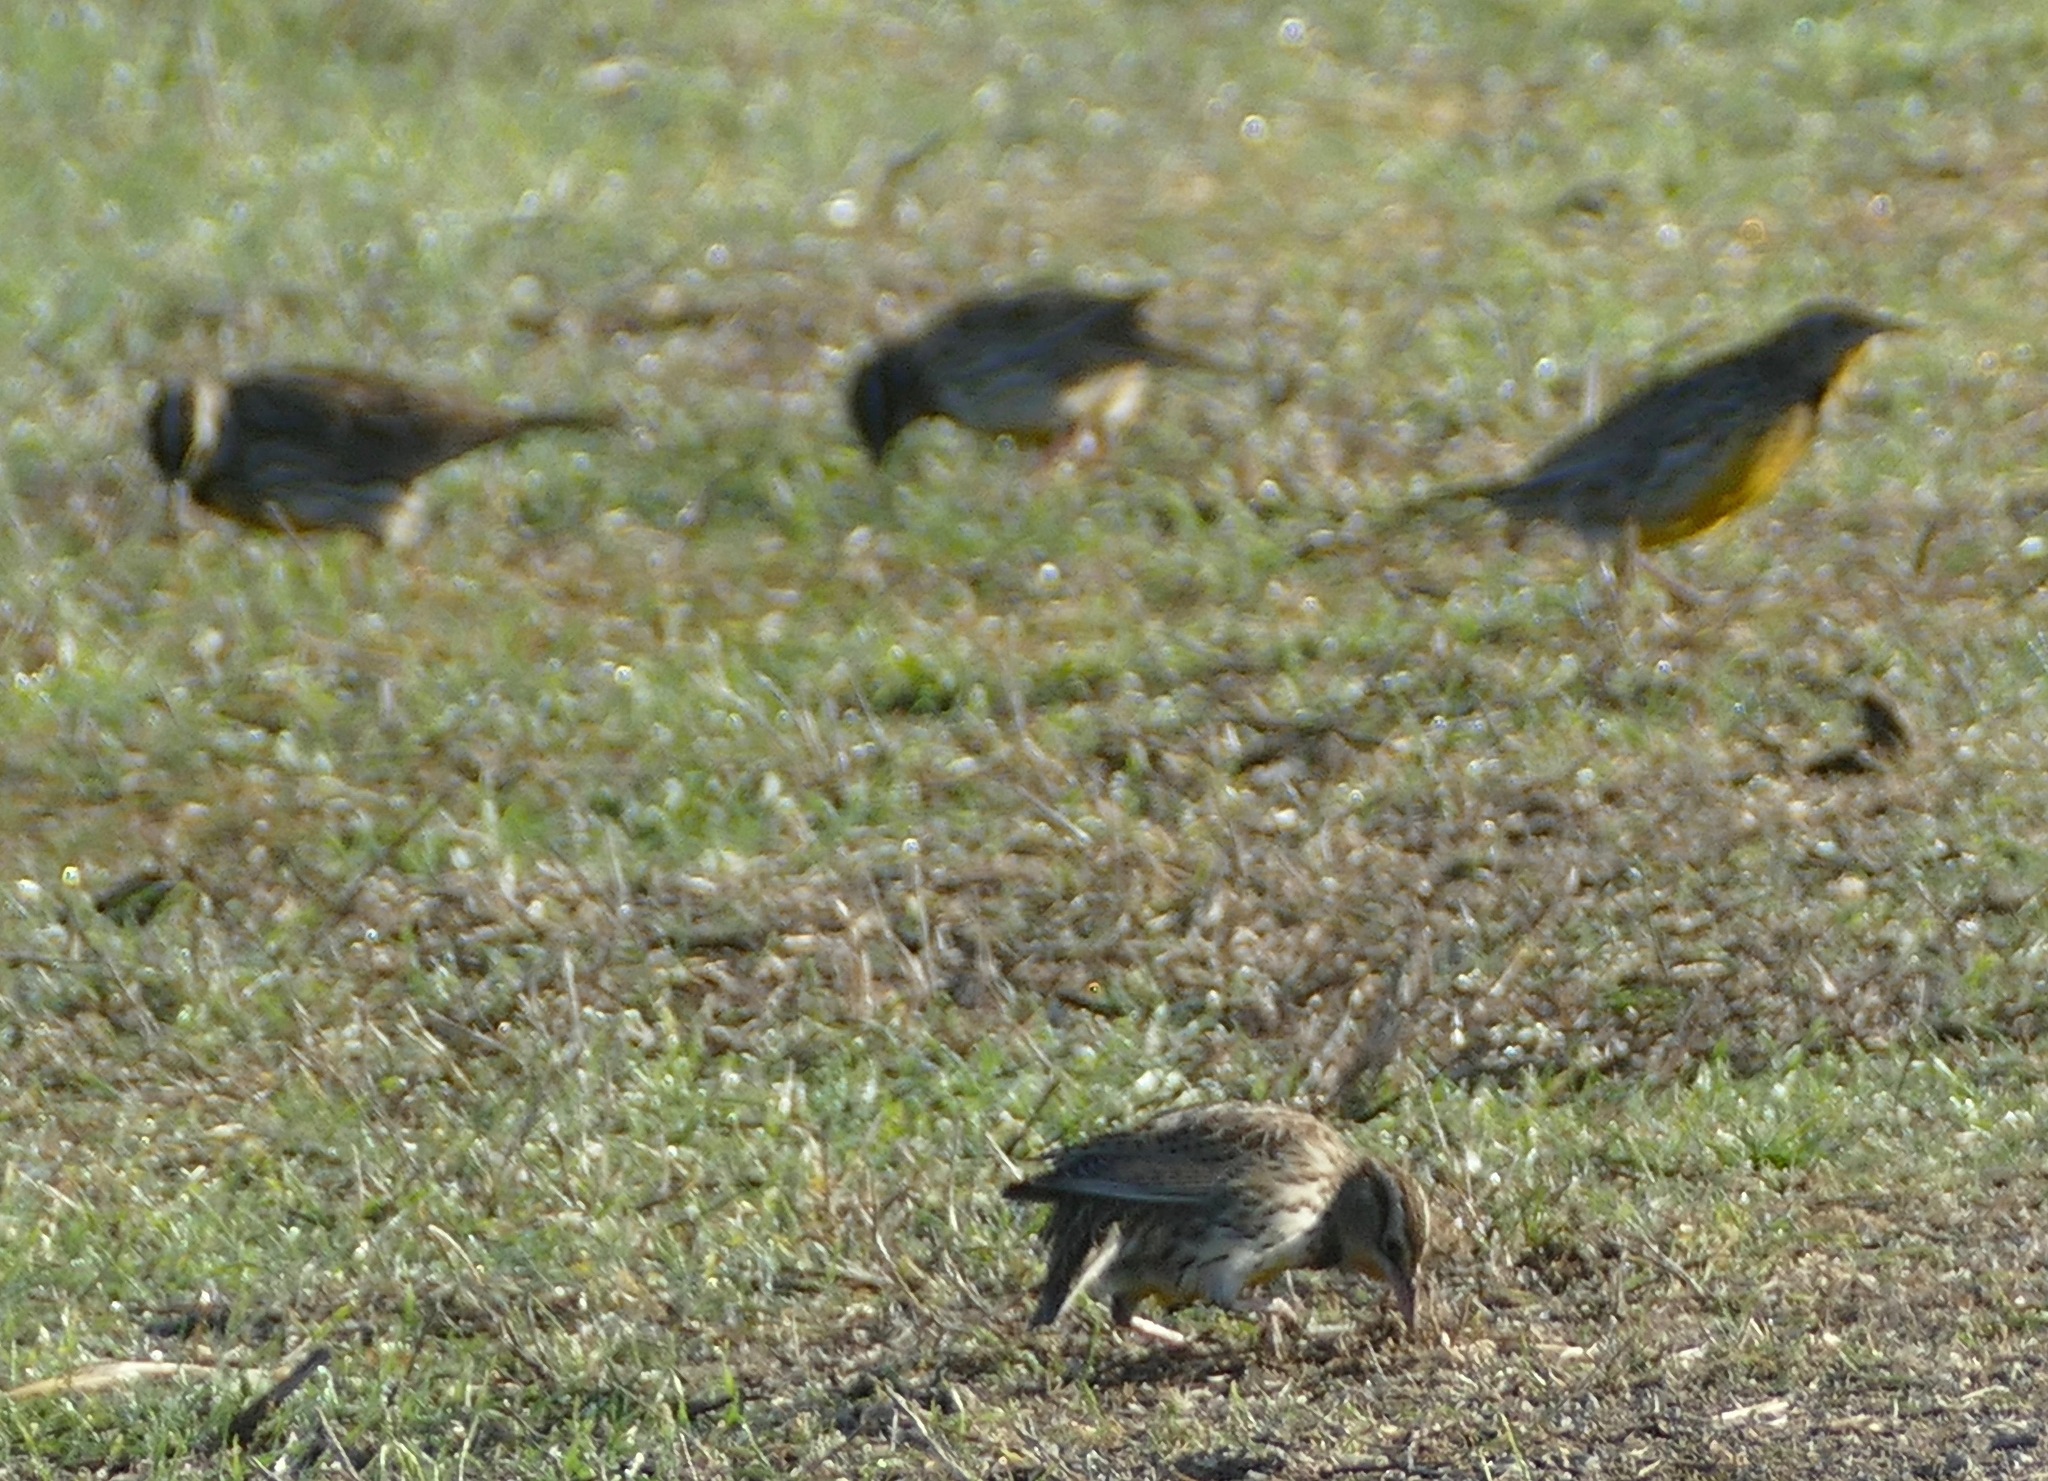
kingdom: Animalia
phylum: Chordata
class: Aves
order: Passeriformes
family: Icteridae
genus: Sturnella
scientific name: Sturnella neglecta
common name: Western meadowlark
